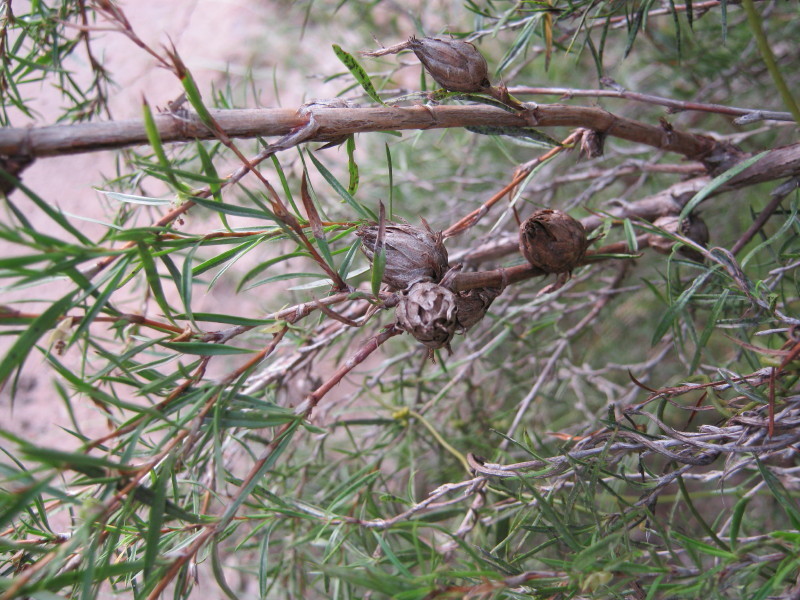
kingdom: Plantae
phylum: Tracheophyta
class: Magnoliopsida
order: Rosales
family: Rosaceae
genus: Cliffortia
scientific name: Cliffortia strobilifera
